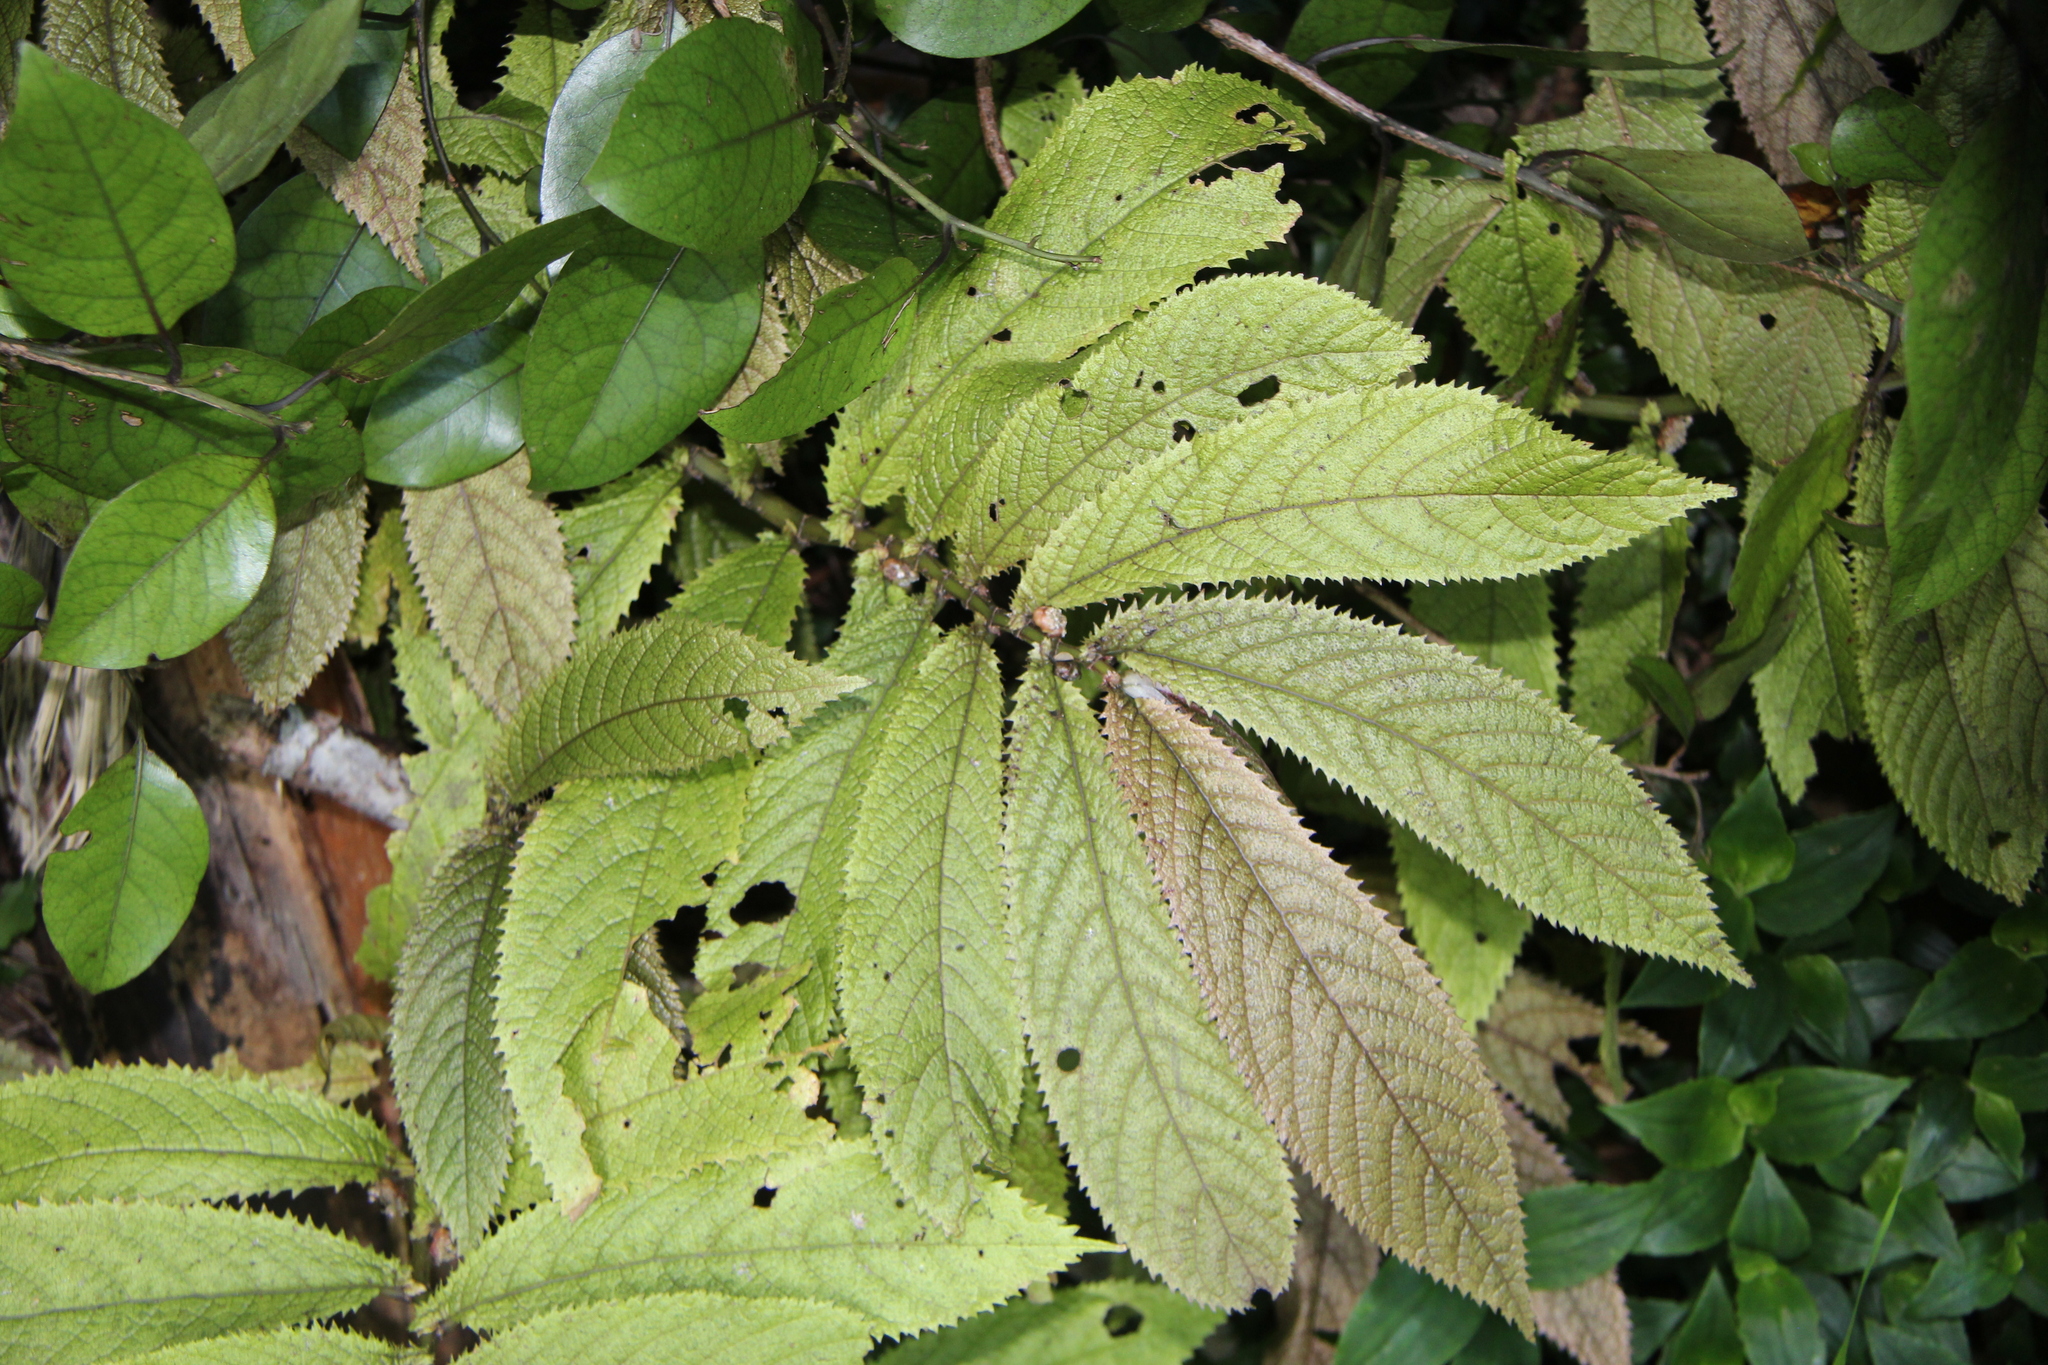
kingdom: Plantae
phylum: Tracheophyta
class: Magnoliopsida
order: Rosales
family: Urticaceae
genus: Elatostema
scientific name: Elatostema rugosum
